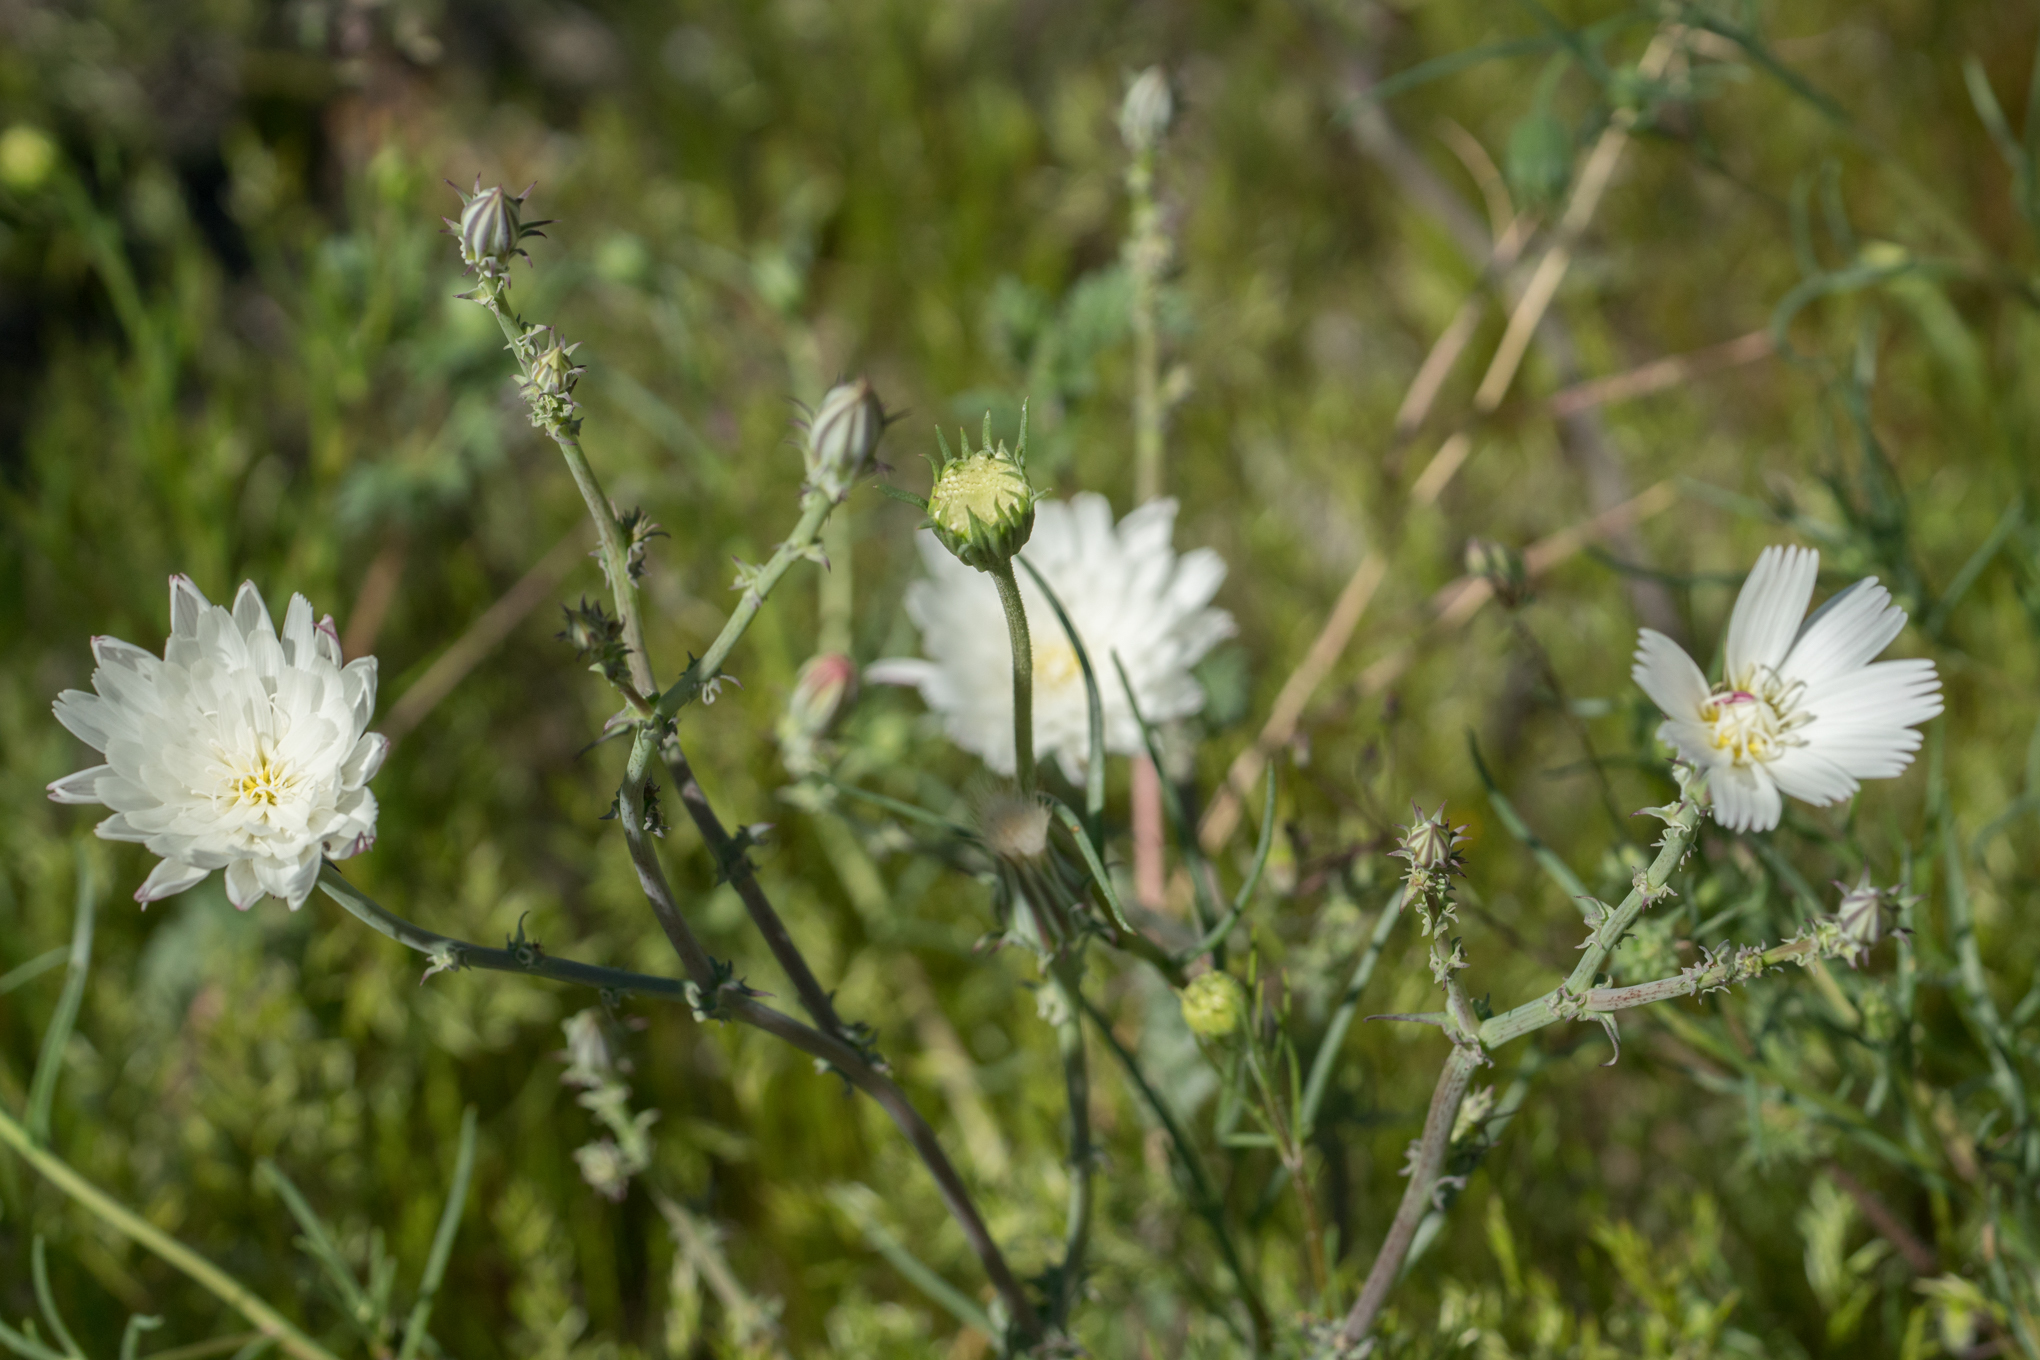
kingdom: Plantae
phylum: Tracheophyta
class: Magnoliopsida
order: Asterales
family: Asteraceae
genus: Rafinesquia
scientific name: Rafinesquia neomexicana
